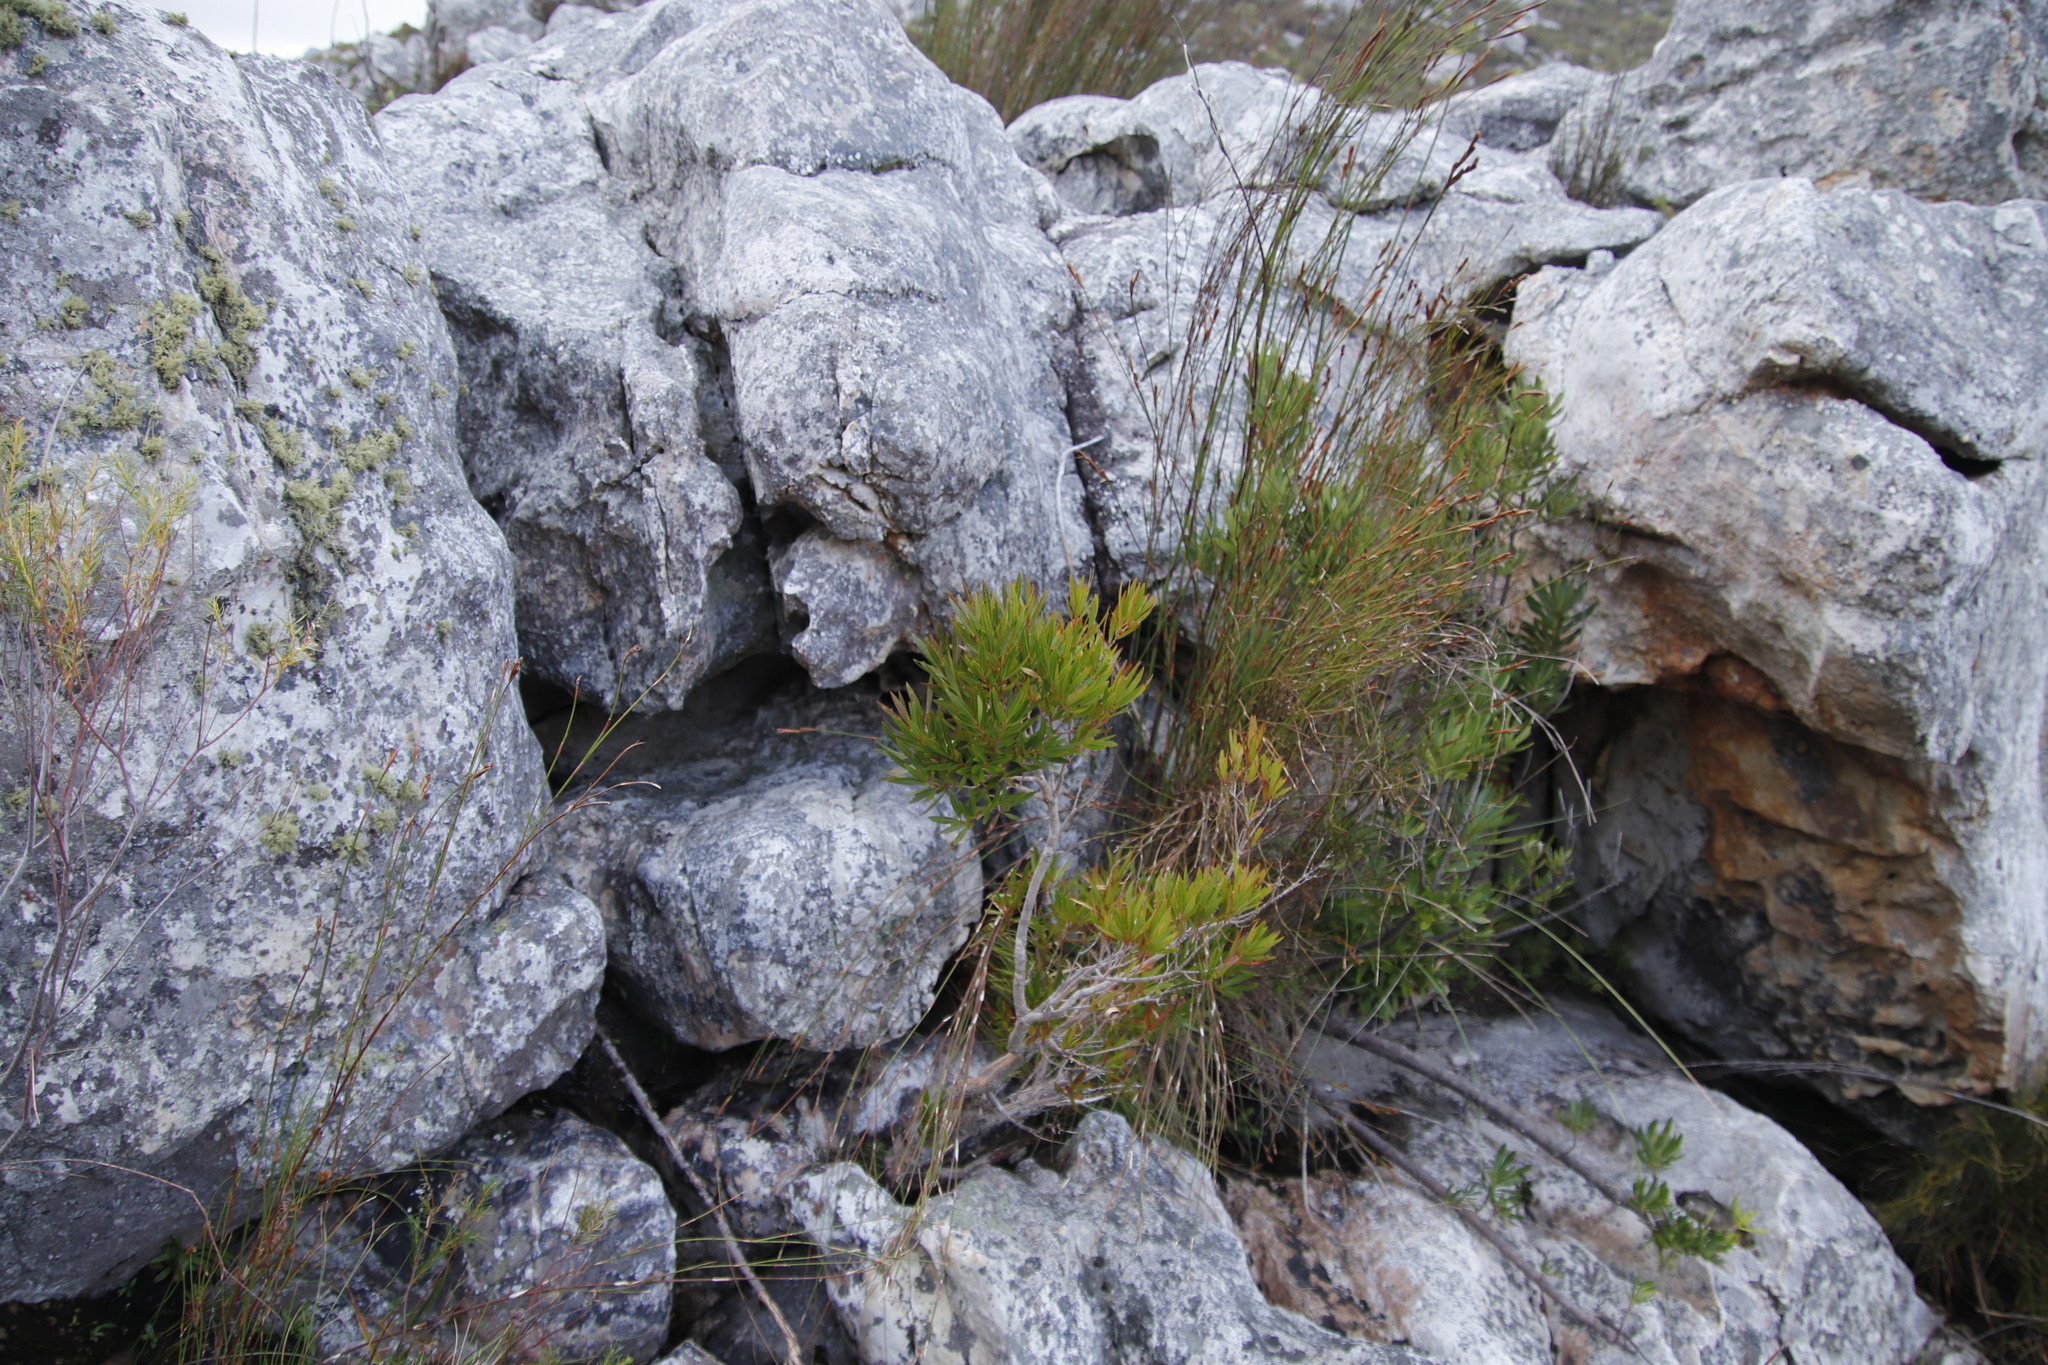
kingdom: Plantae
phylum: Tracheophyta
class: Magnoliopsida
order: Myrtales
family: Myrtaceae
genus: Callistemon
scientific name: Callistemon lanceolatus
